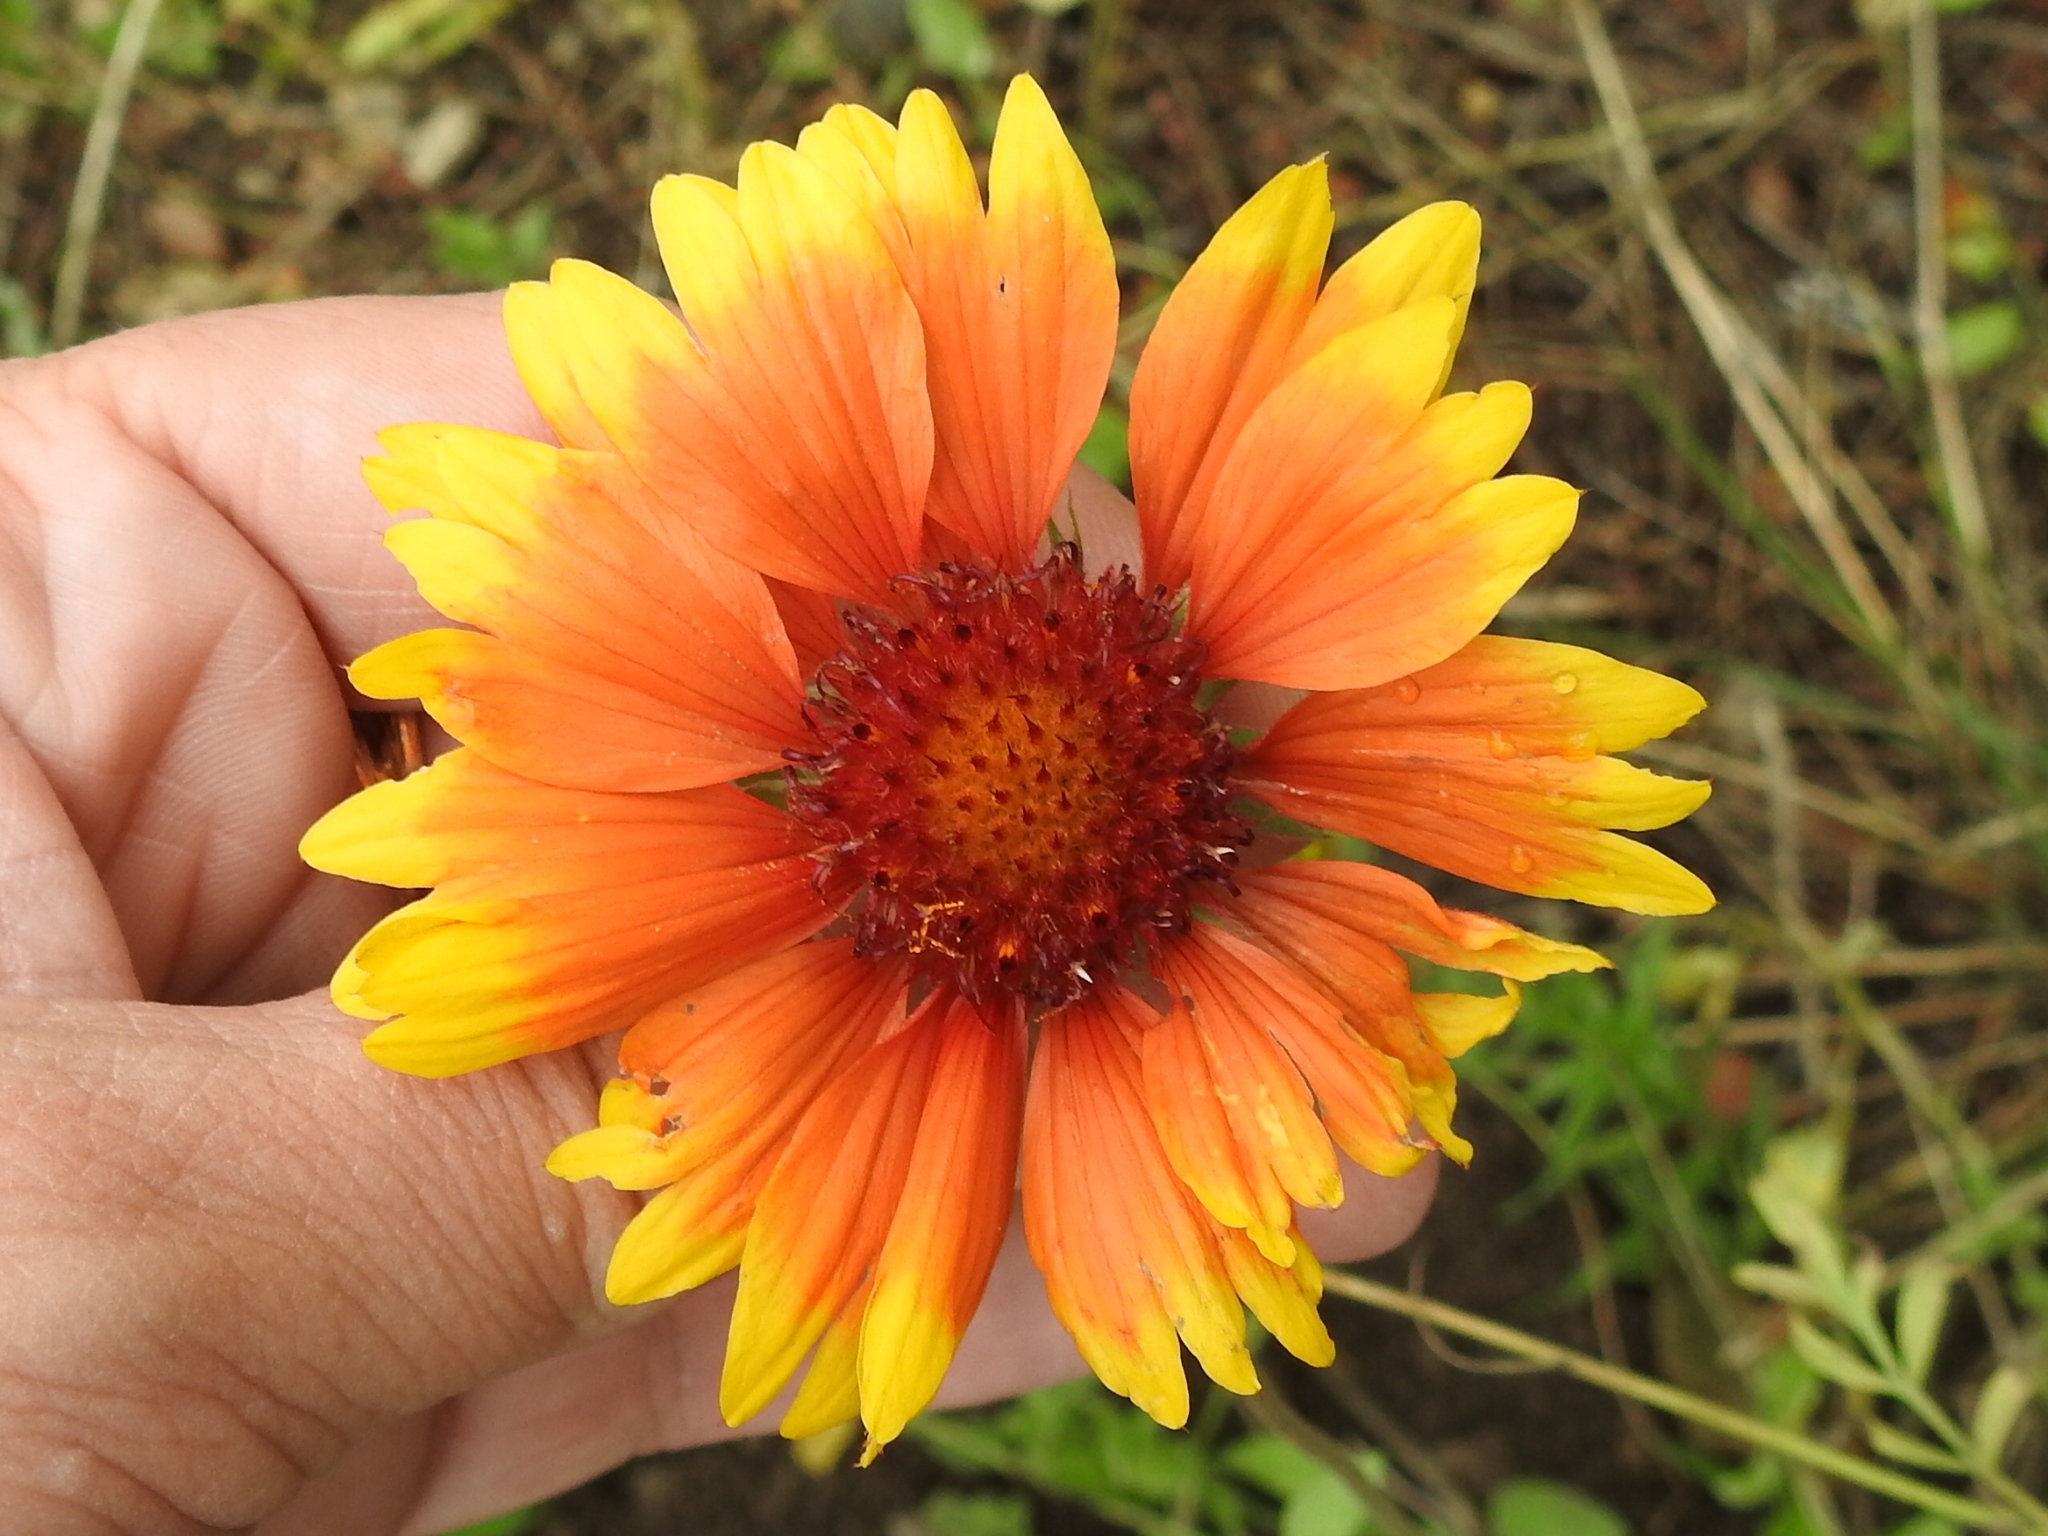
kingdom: Plantae
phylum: Tracheophyta
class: Magnoliopsida
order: Asterales
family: Asteraceae
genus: Gaillardia
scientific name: Gaillardia pulchella
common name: Firewheel
